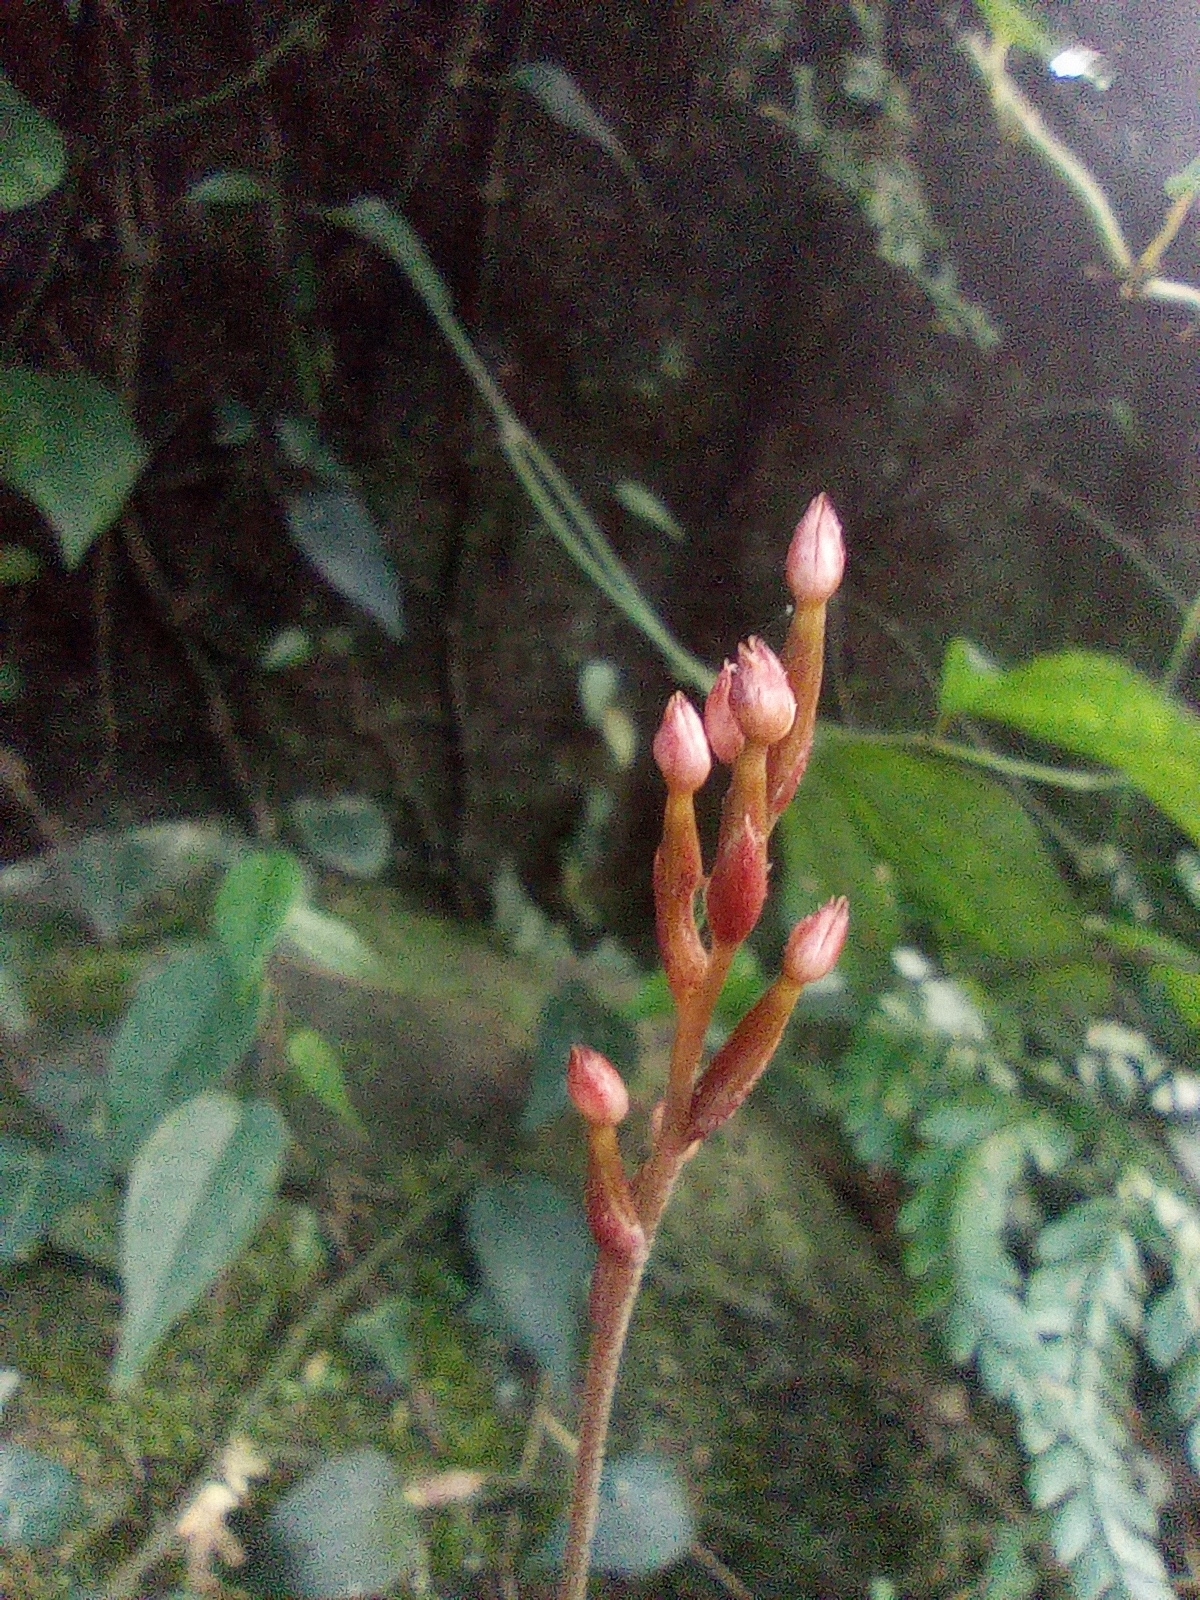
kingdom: Plantae
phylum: Tracheophyta
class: Liliopsida
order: Asparagales
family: Orchidaceae
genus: Rhomboda
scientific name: Rhomboda yakusimensis
